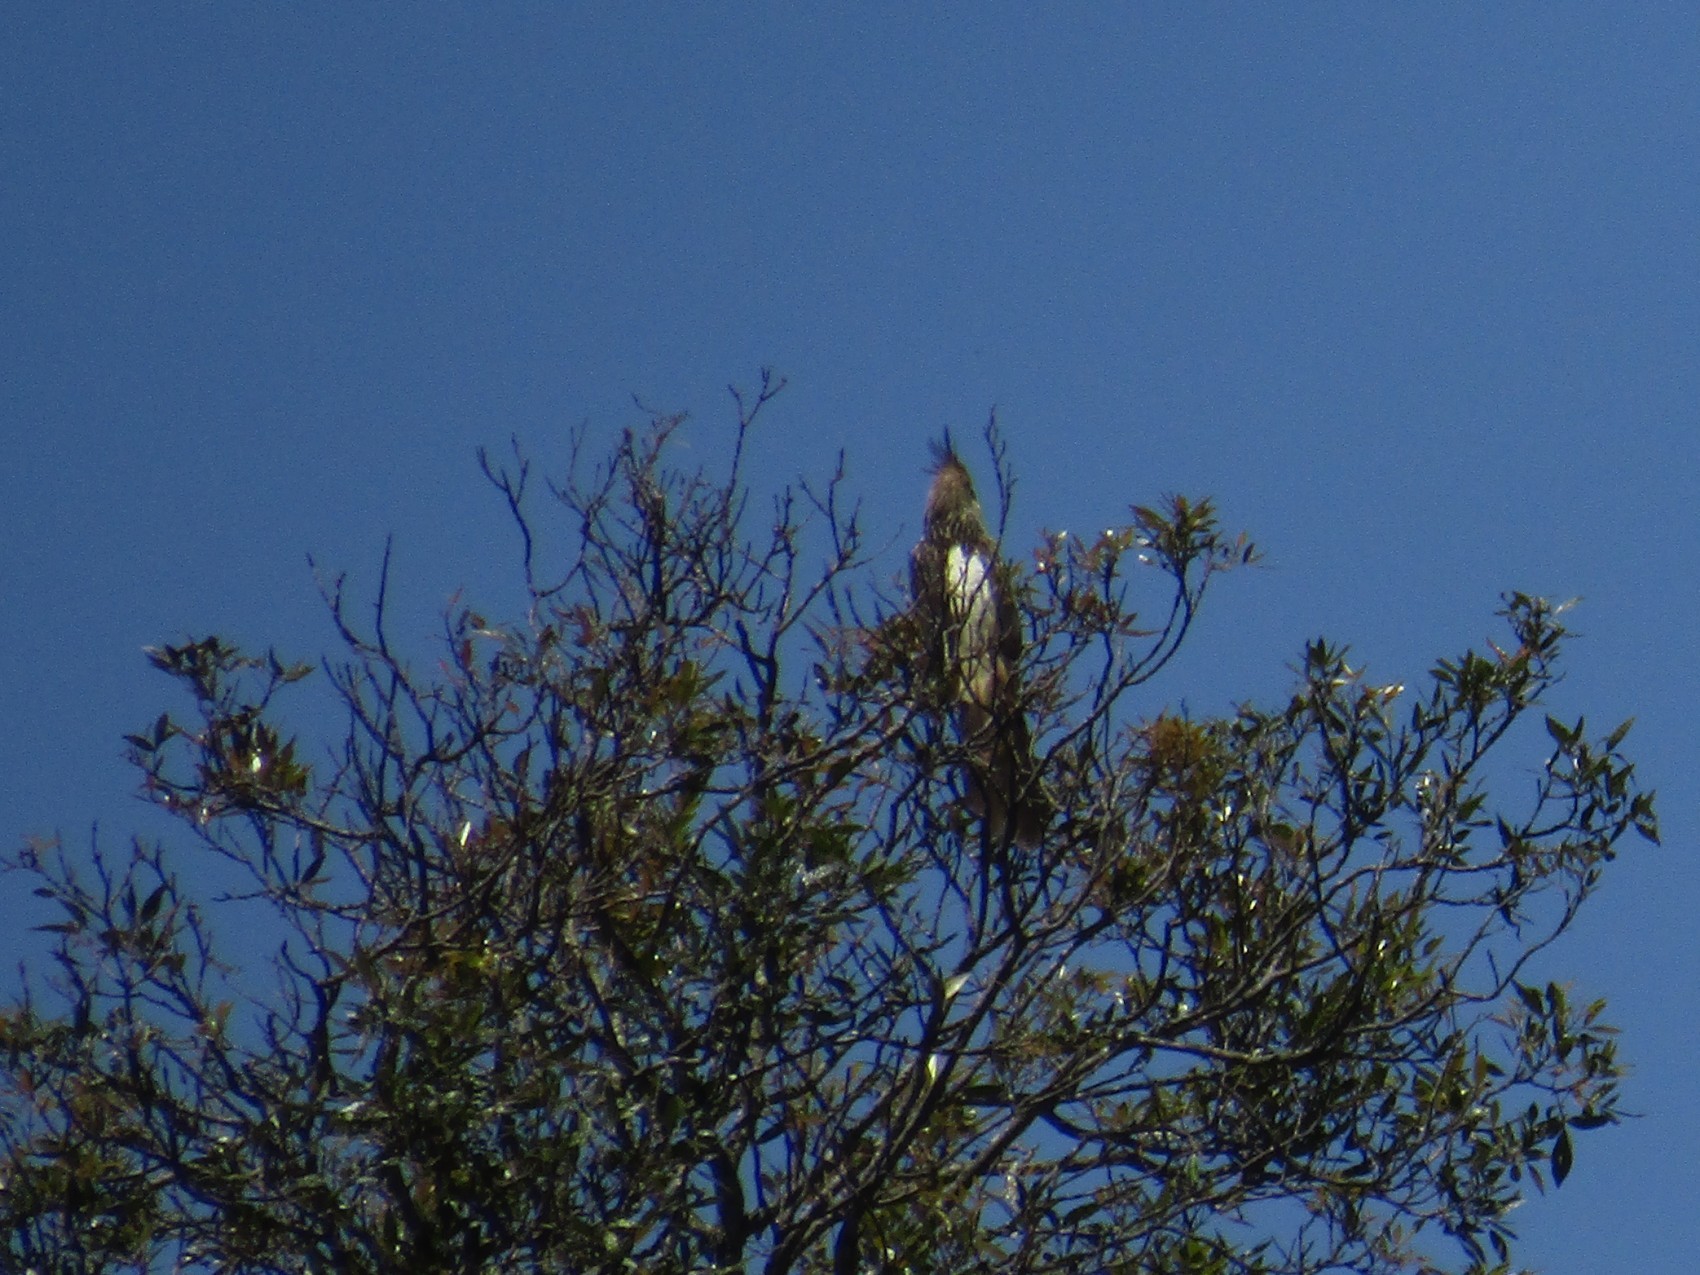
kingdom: Animalia
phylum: Chordata
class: Aves
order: Cuculiformes
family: Cuculidae
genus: Guira
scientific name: Guira guira
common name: Guira cuckoo
